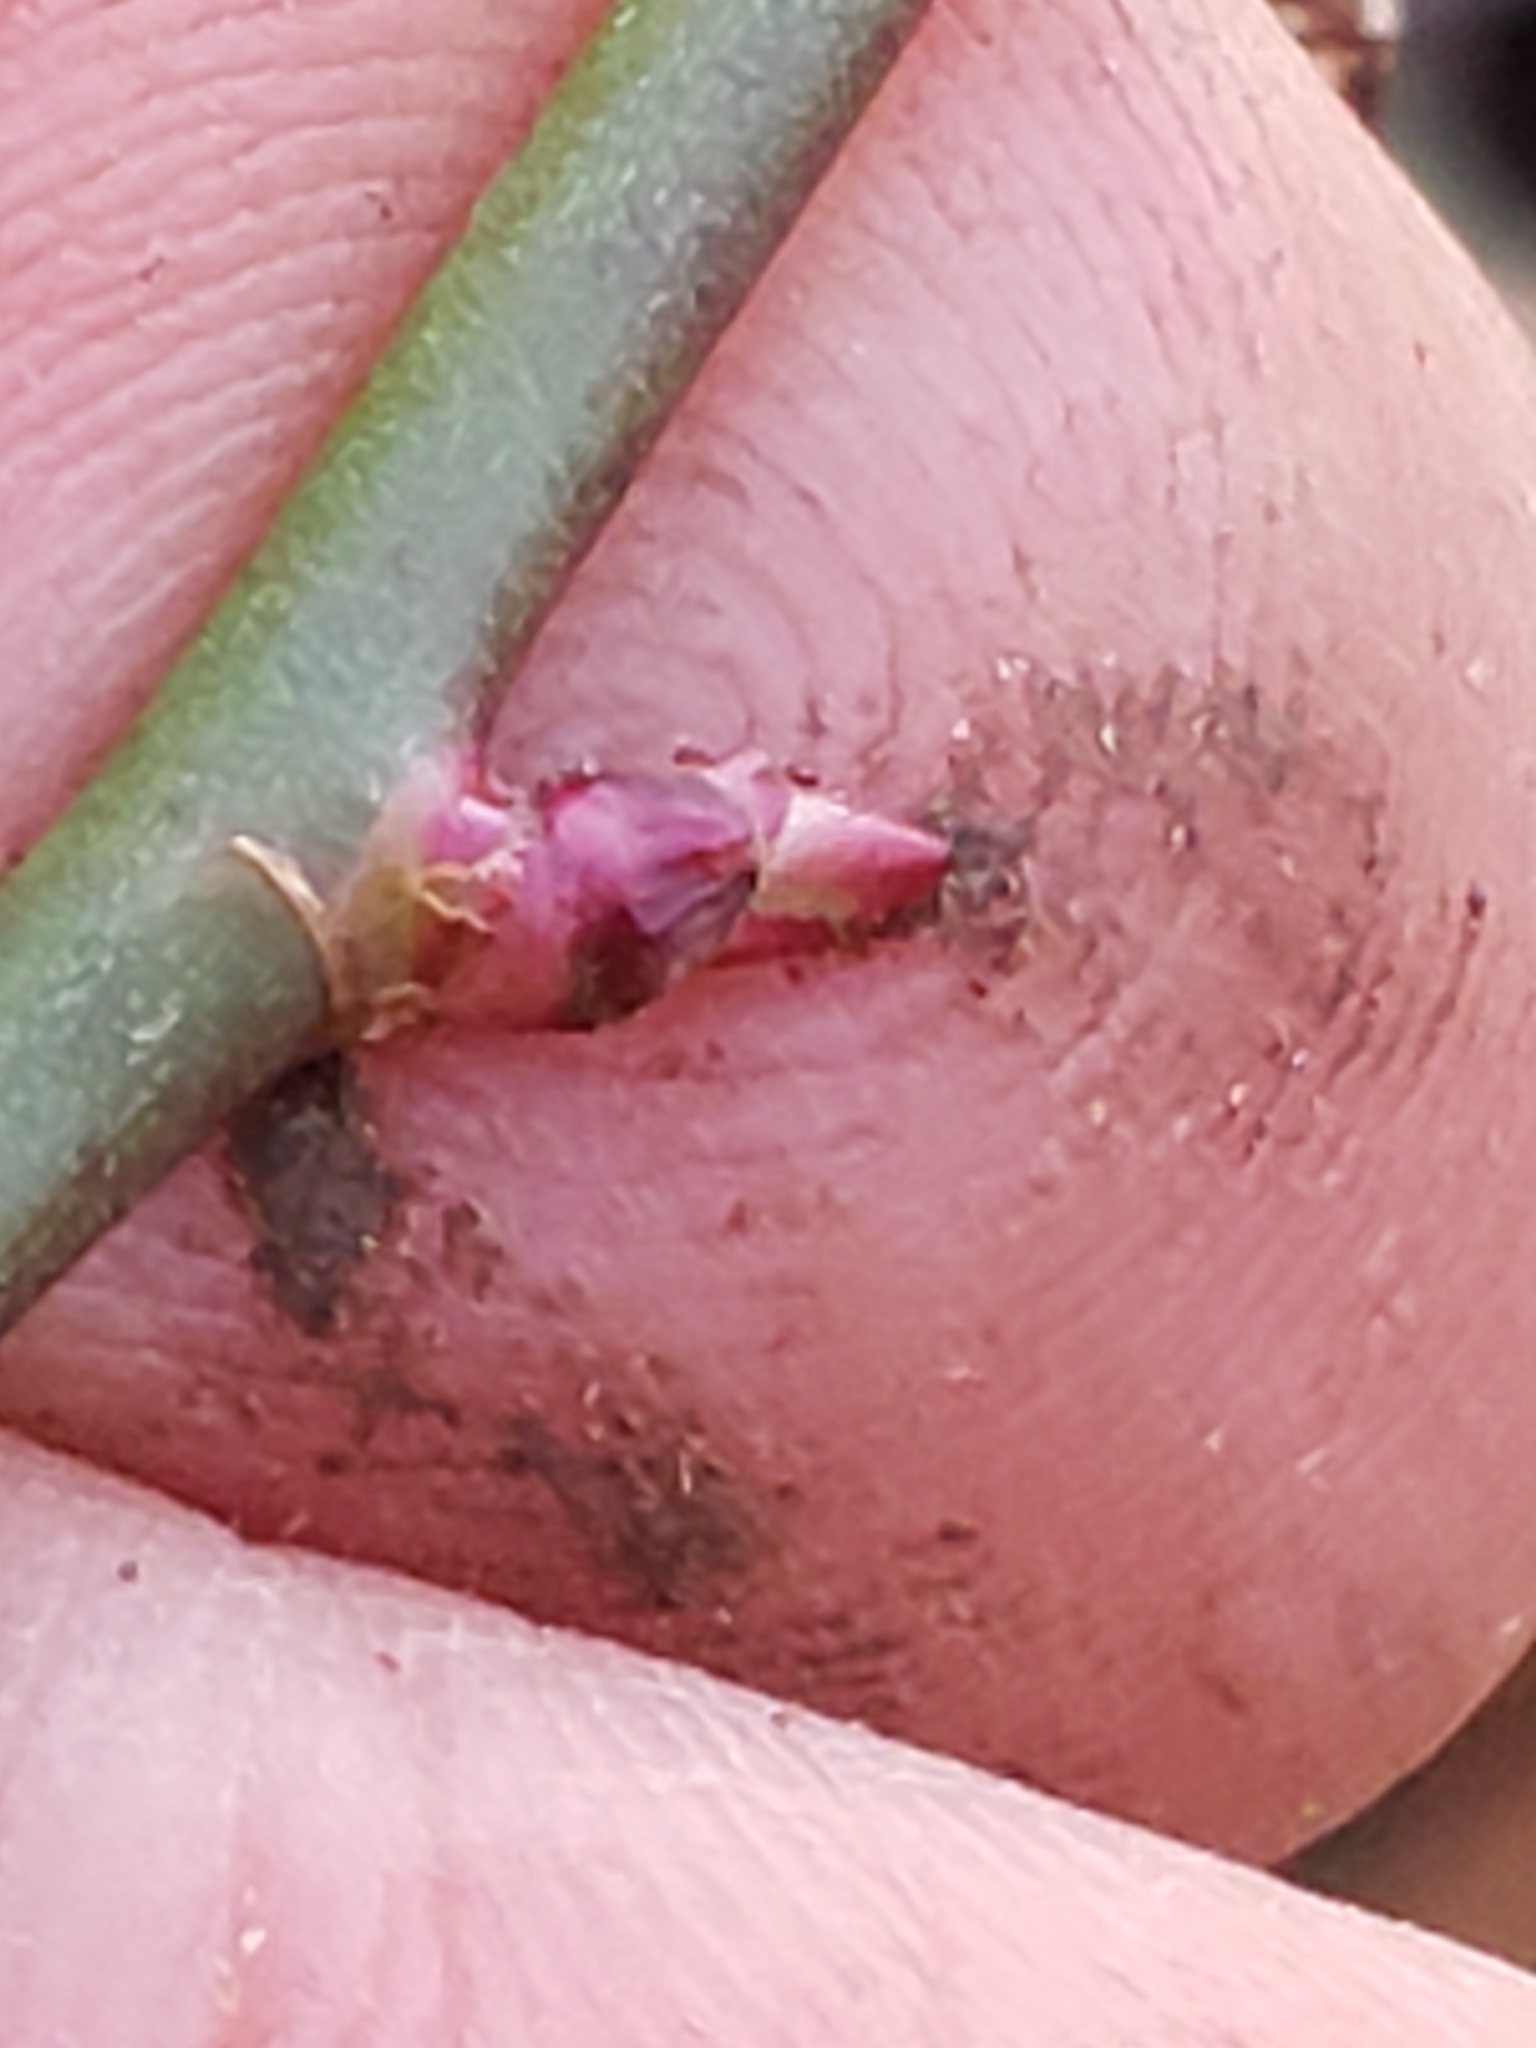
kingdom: Plantae
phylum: Tracheophyta
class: Magnoliopsida
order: Rosales
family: Rosaceae
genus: Rosa
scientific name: Rosa multiflora
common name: Multiflora rose
